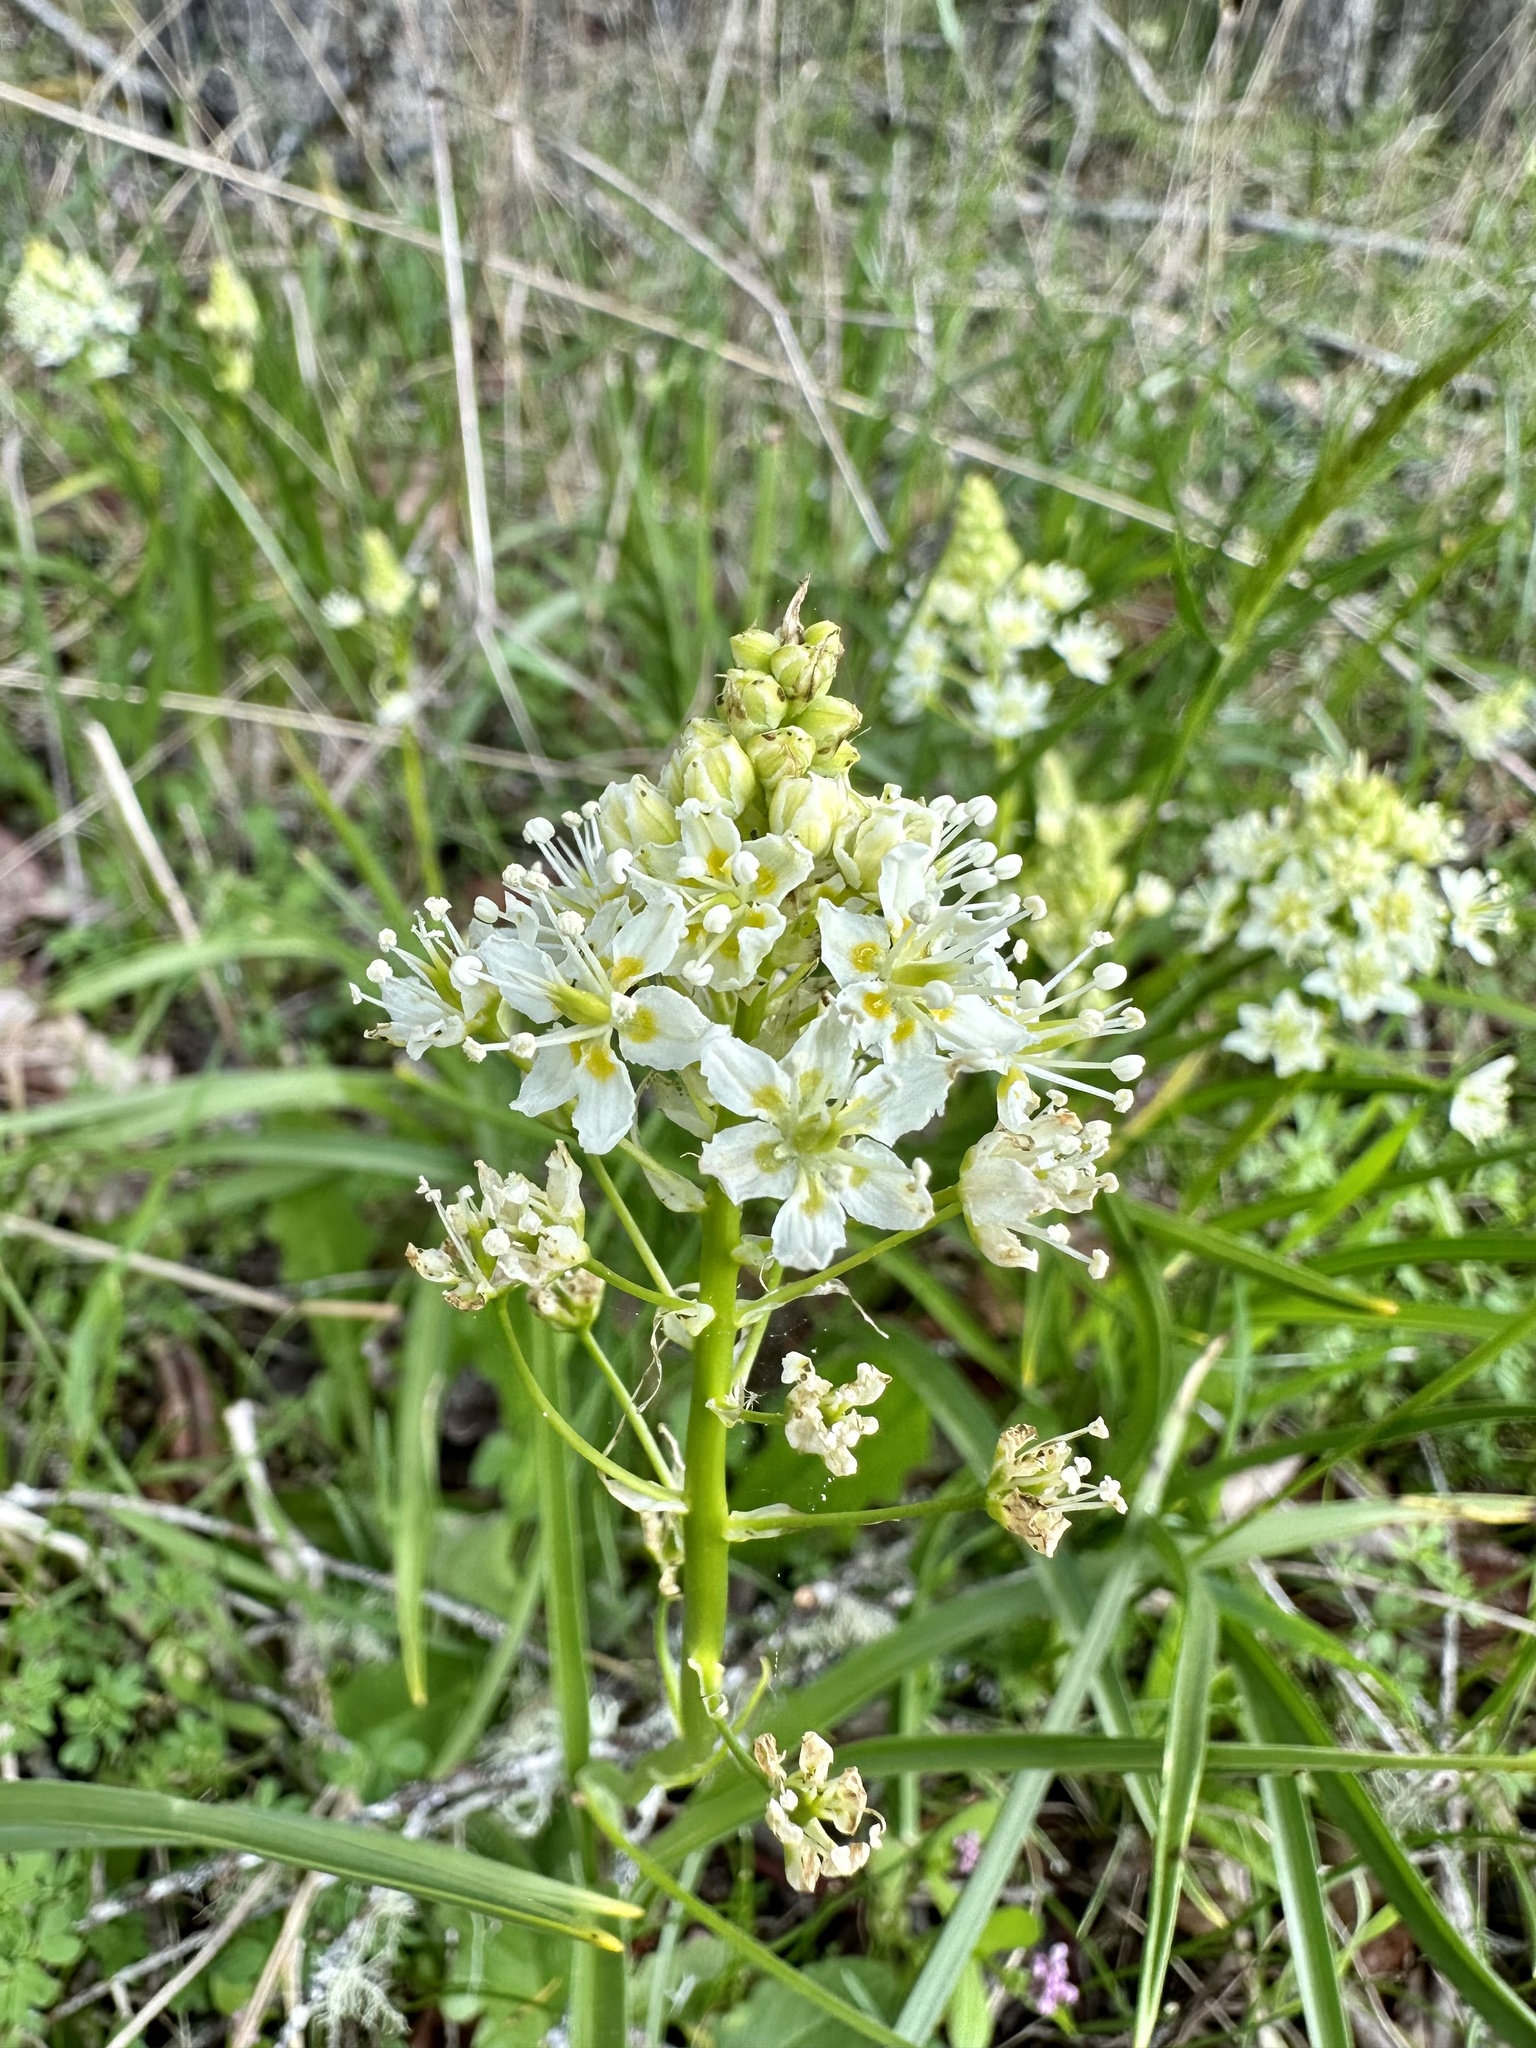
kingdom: Plantae
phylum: Tracheophyta
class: Liliopsida
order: Liliales
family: Melanthiaceae
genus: Toxicoscordion
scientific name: Toxicoscordion venenosum
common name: Meadow death camas
